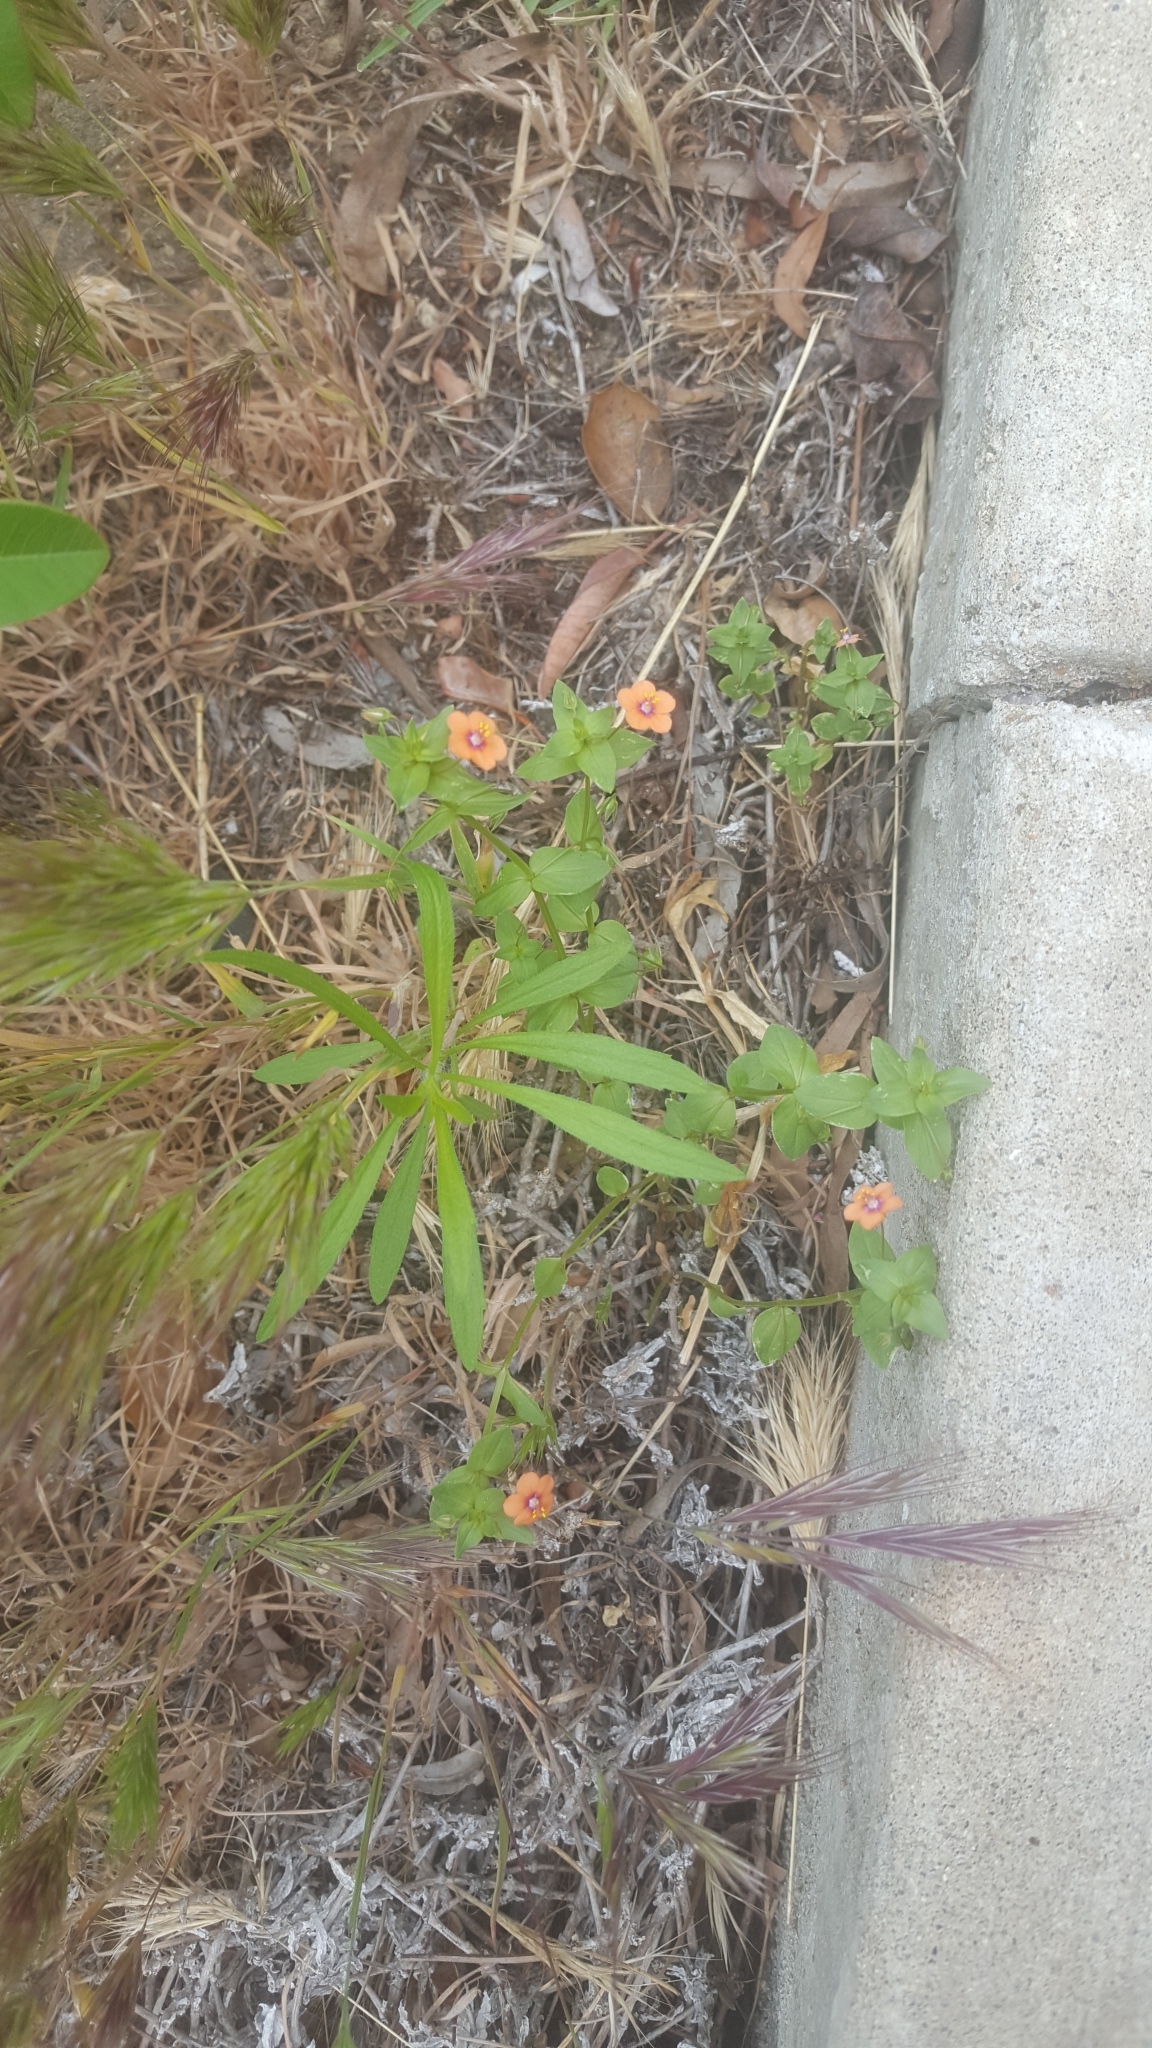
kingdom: Plantae
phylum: Tracheophyta
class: Magnoliopsida
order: Ericales
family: Primulaceae
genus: Lysimachia
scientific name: Lysimachia arvensis
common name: Scarlet pimpernel
